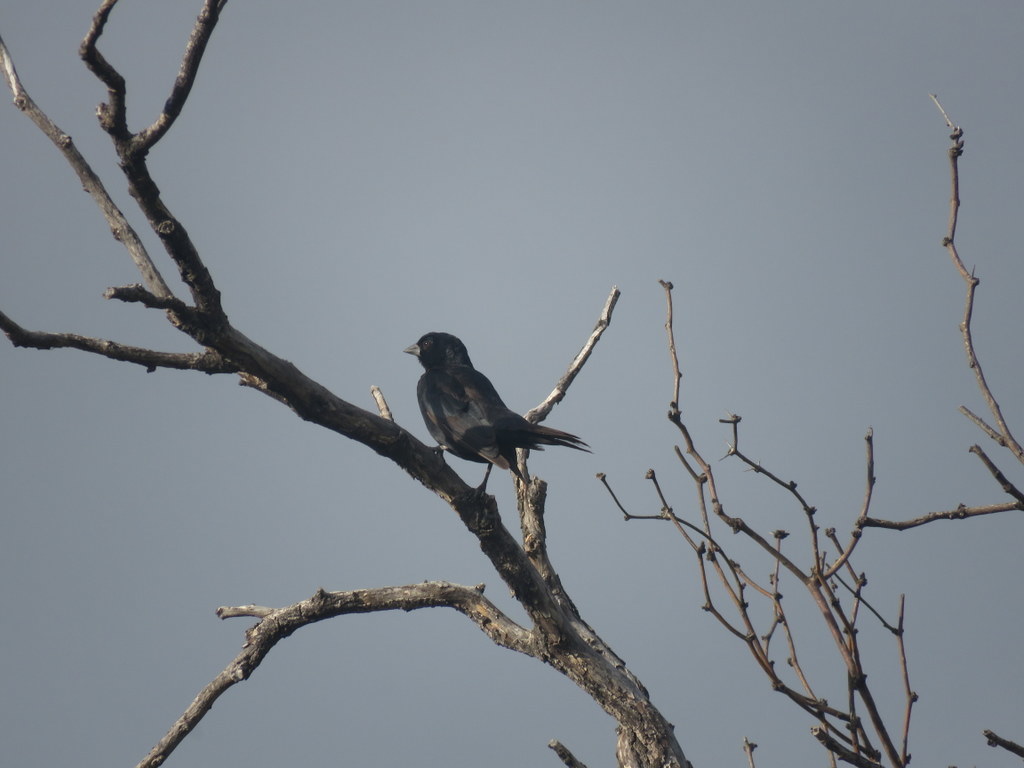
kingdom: Animalia
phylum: Chordata
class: Aves
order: Passeriformes
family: Icteridae
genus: Molothrus
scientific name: Molothrus rufoaxillaris
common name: Screaming cowbird
